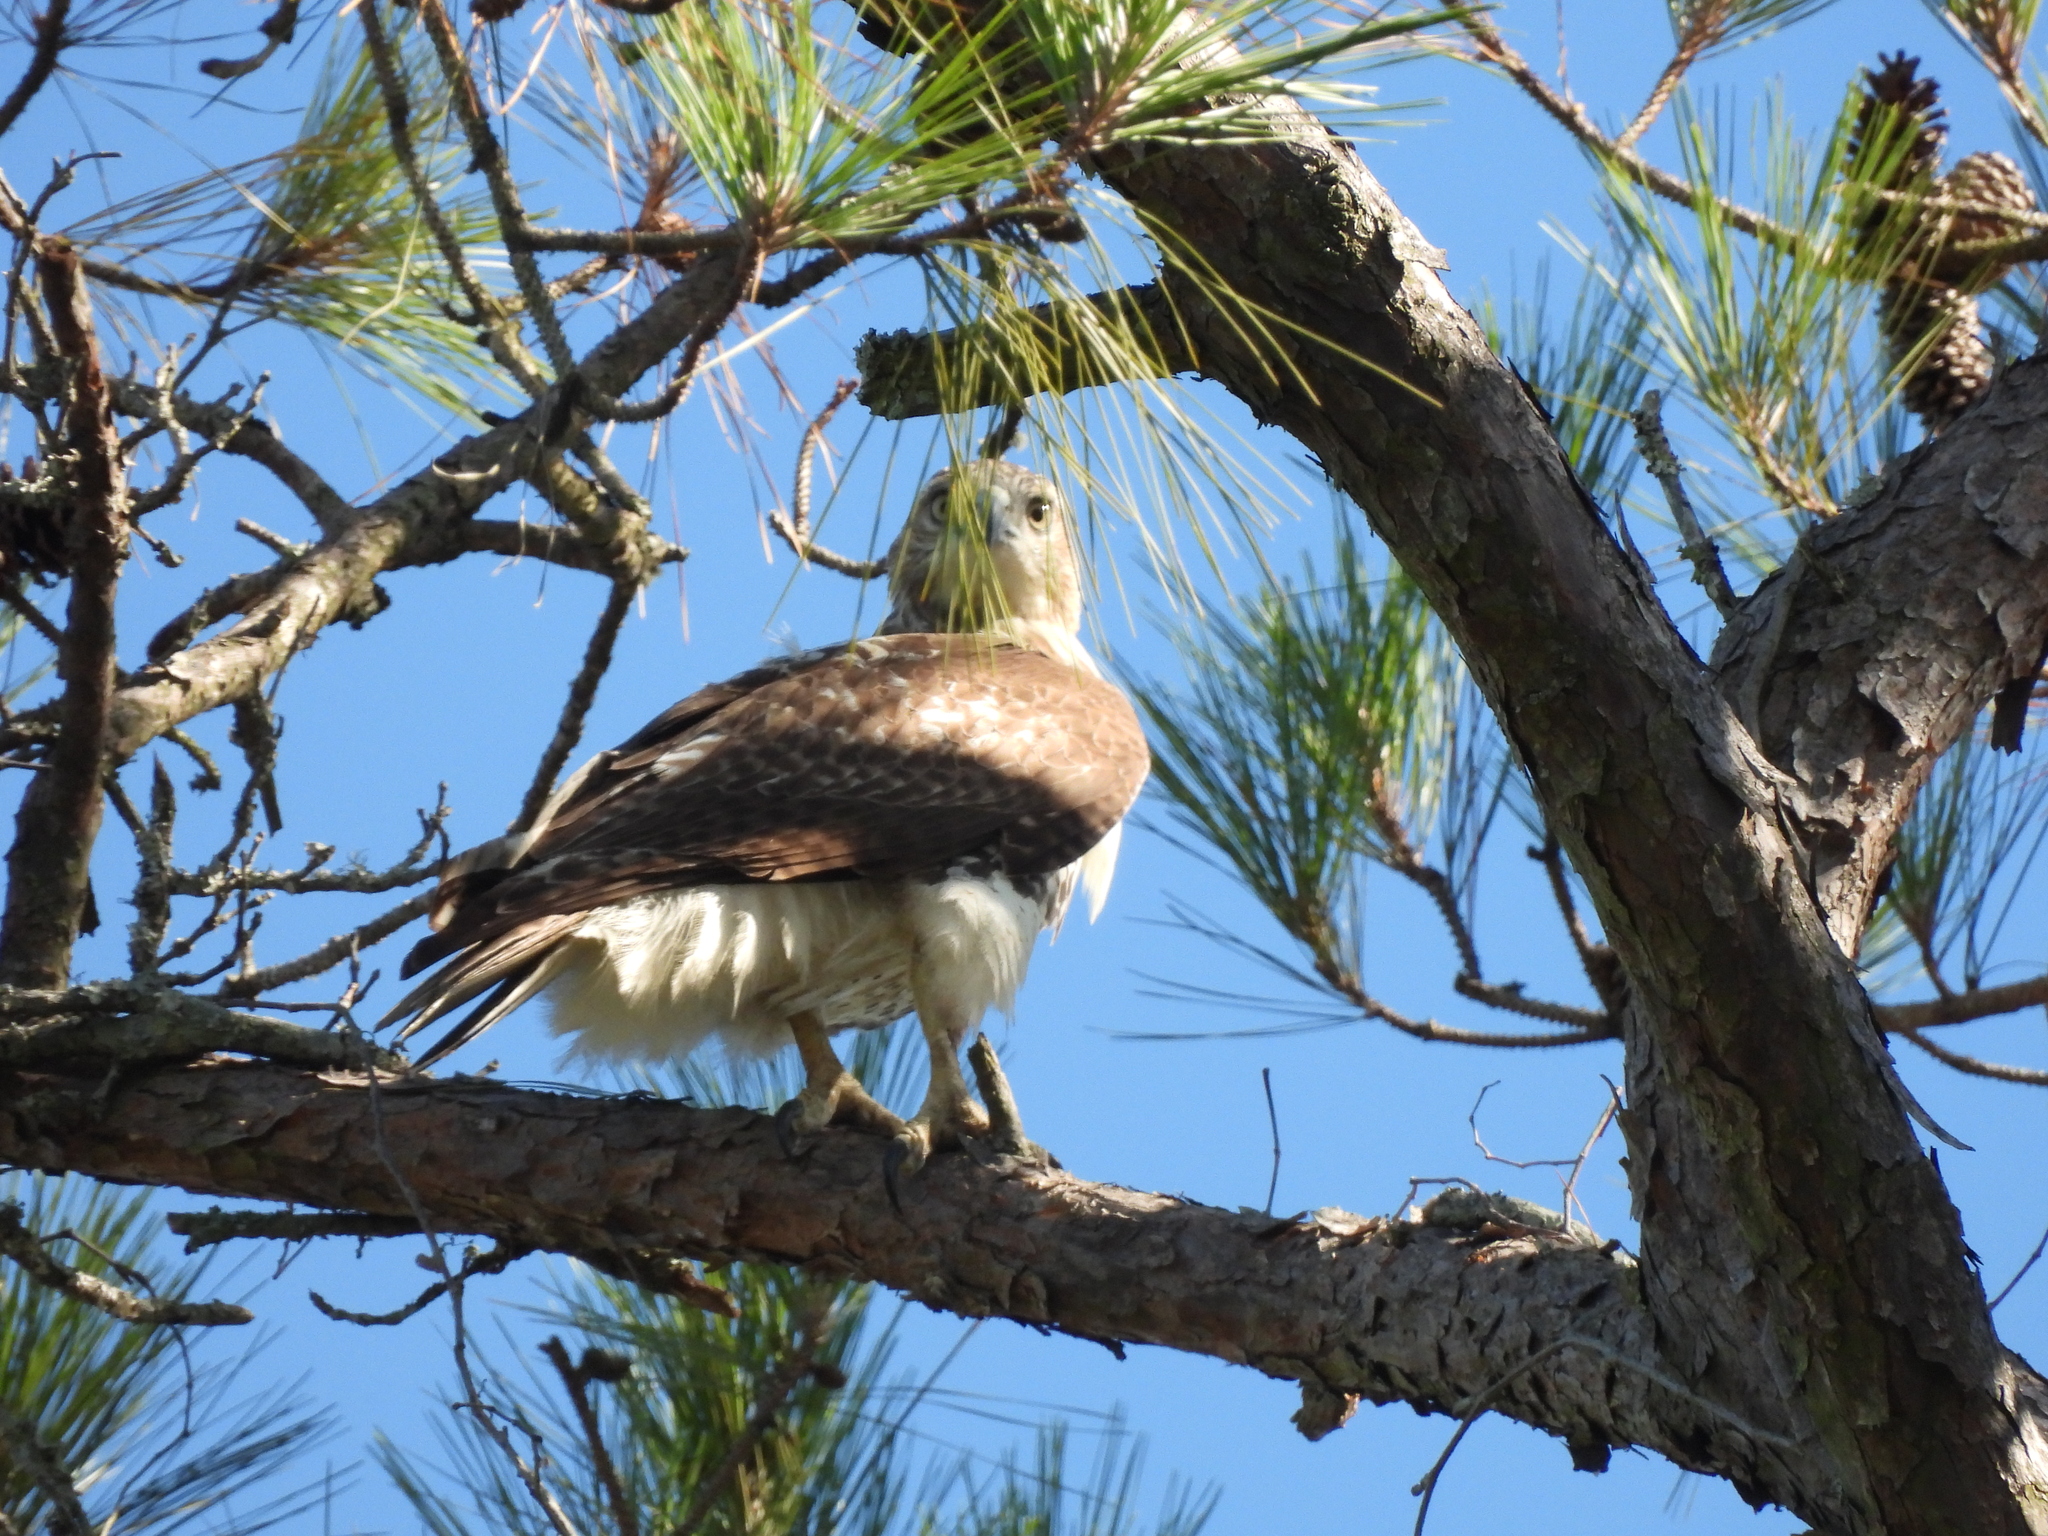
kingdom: Animalia
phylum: Chordata
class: Aves
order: Accipitriformes
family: Accipitridae
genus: Buteo
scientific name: Buteo jamaicensis
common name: Red-tailed hawk
